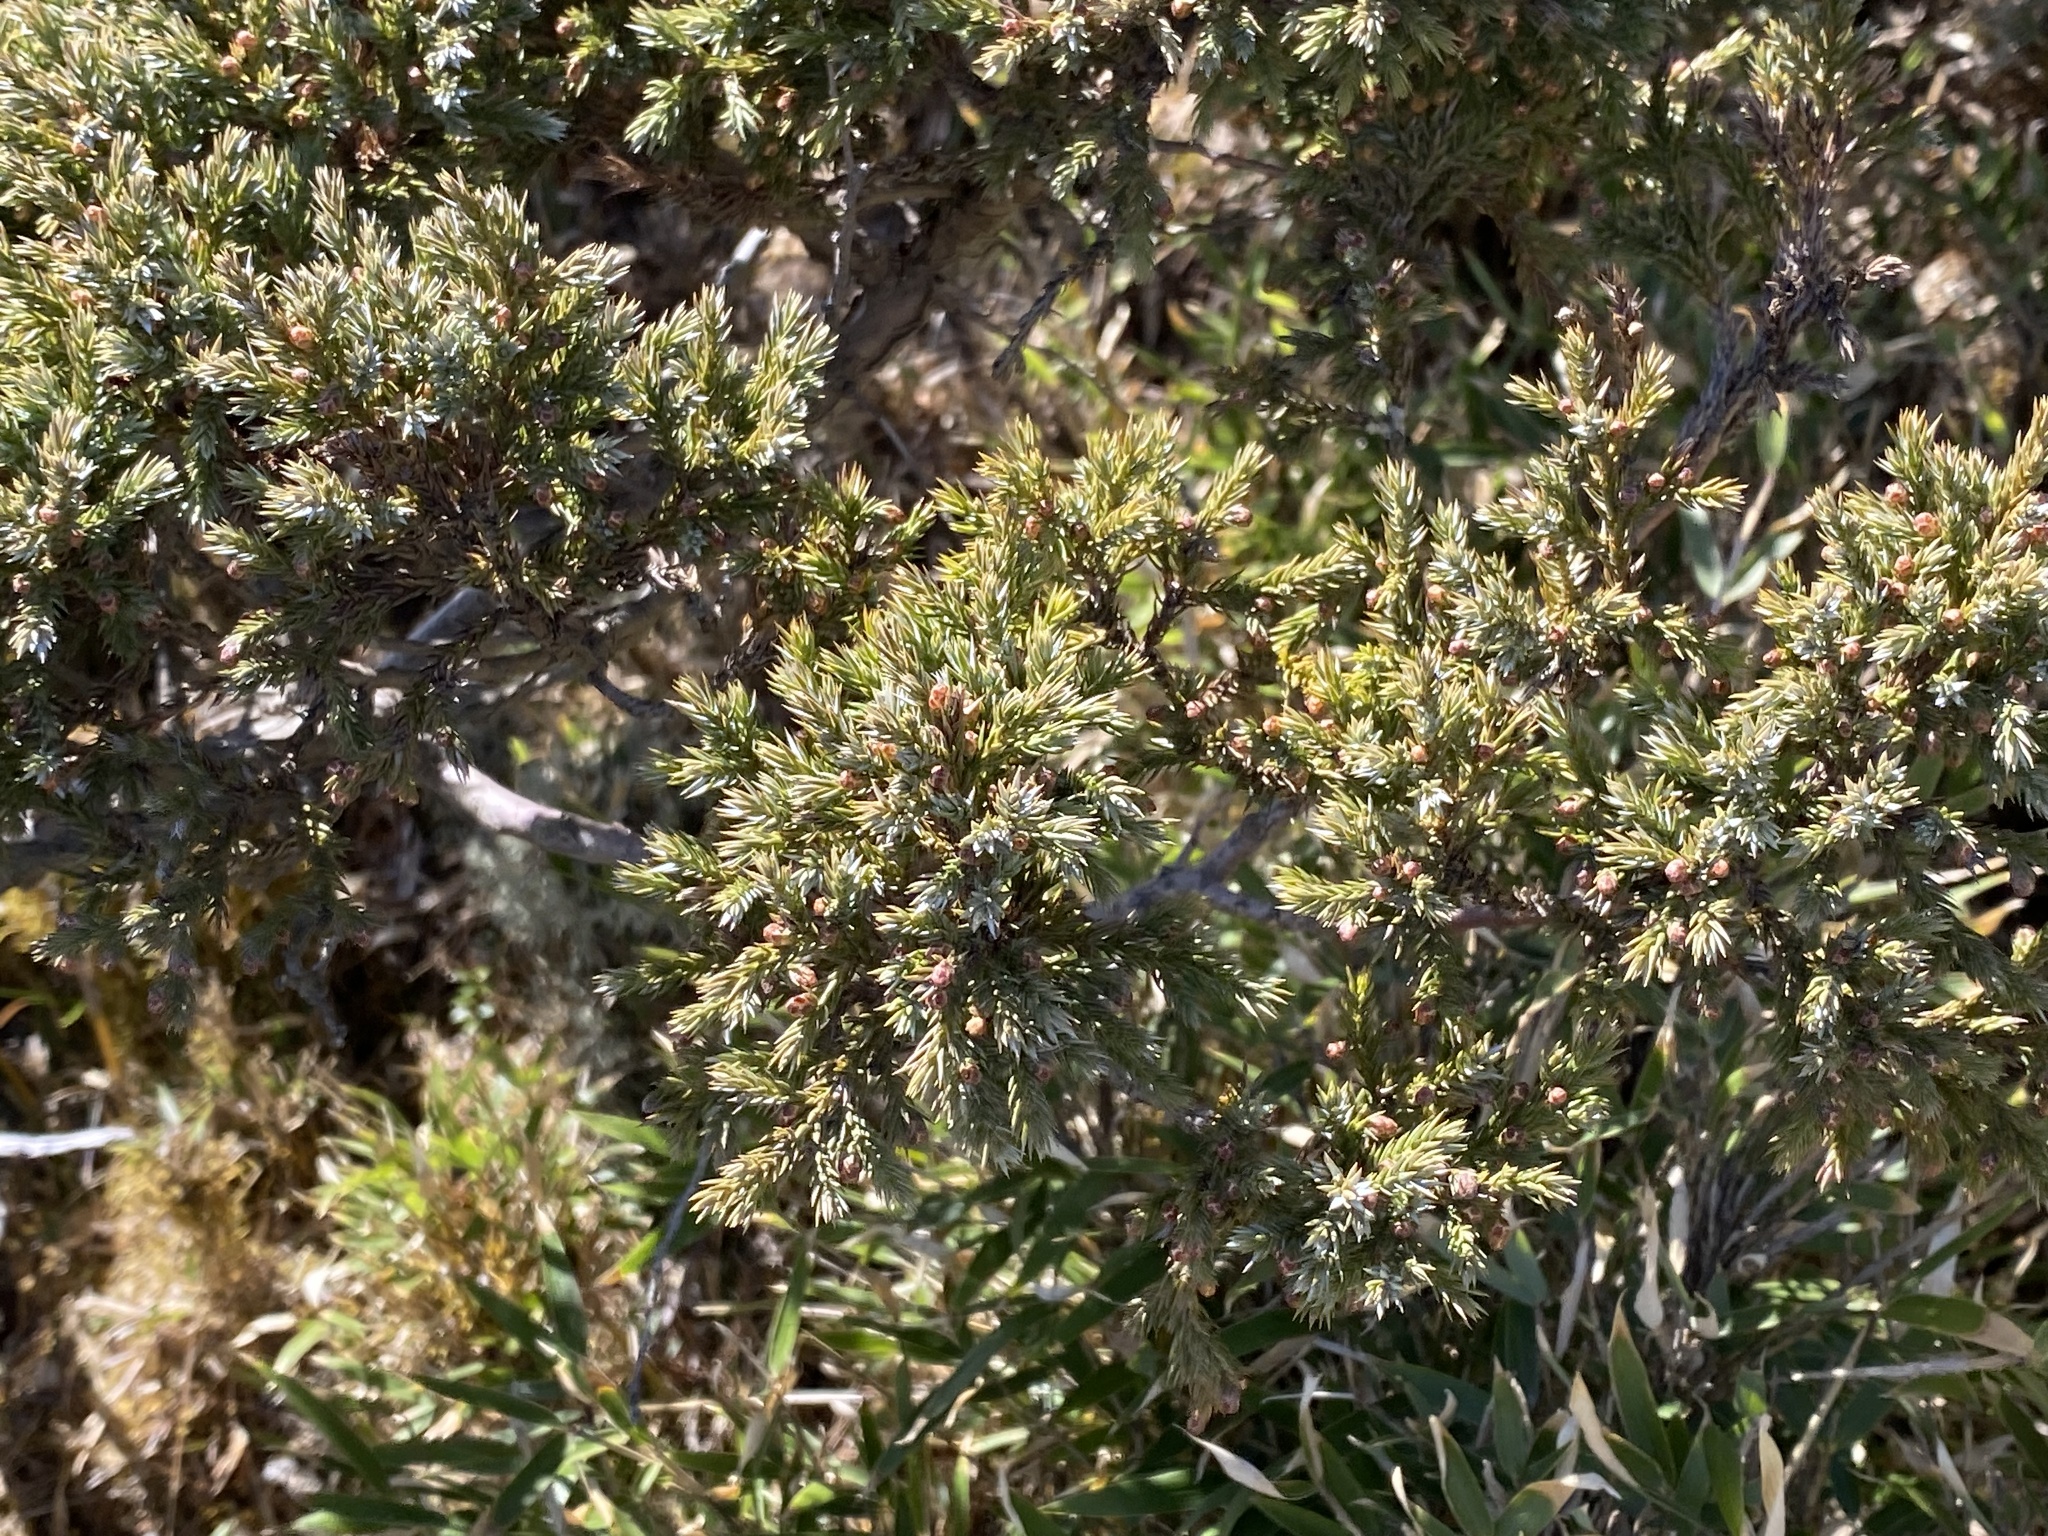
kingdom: Plantae
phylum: Tracheophyta
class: Pinopsida
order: Pinales
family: Cupressaceae
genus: Juniperus
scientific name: Juniperus squamata
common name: Flaky juniper
